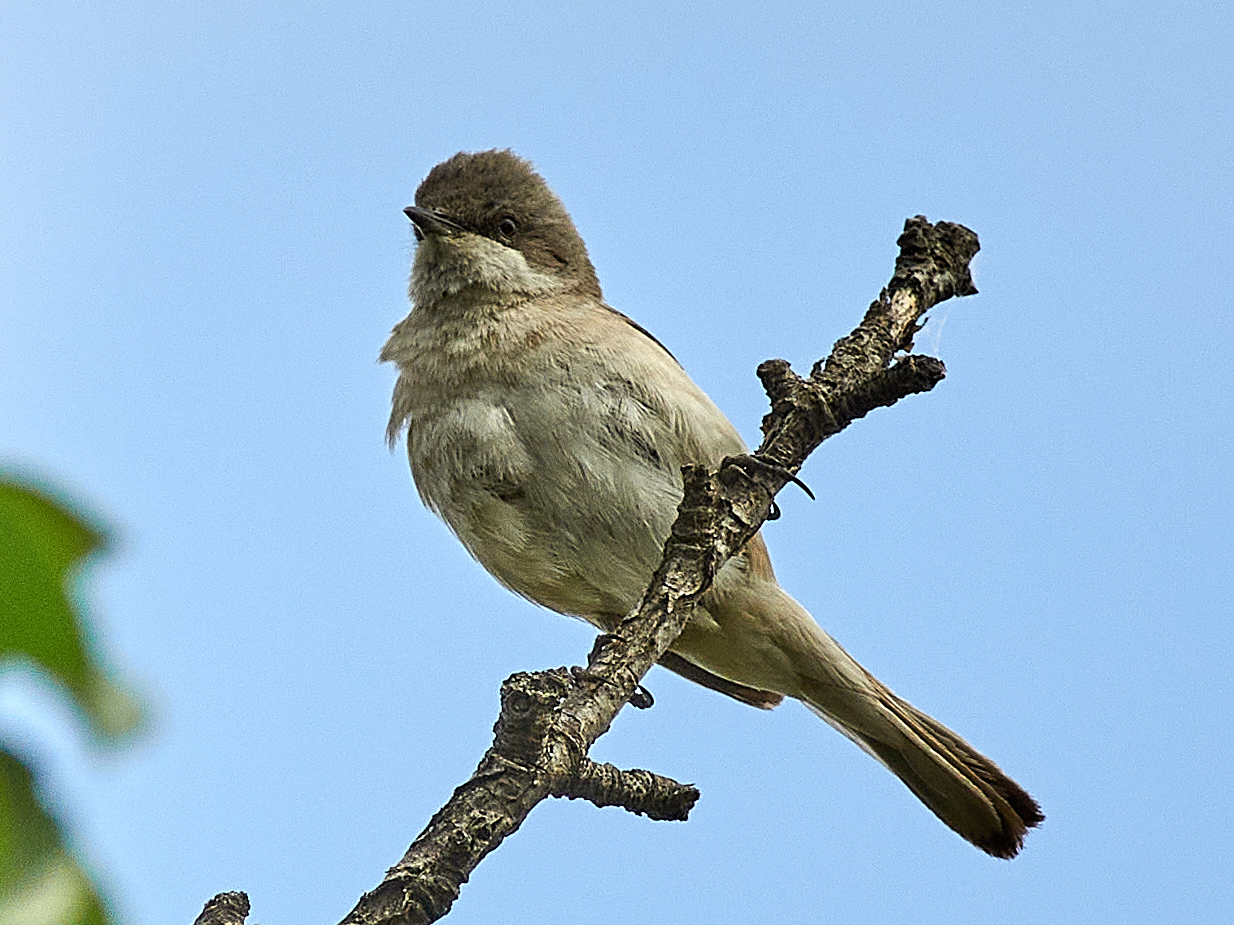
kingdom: Animalia
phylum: Chordata
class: Aves
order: Passeriformes
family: Sylviidae
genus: Sylvia
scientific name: Sylvia curruca
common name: Lesser whitethroat
